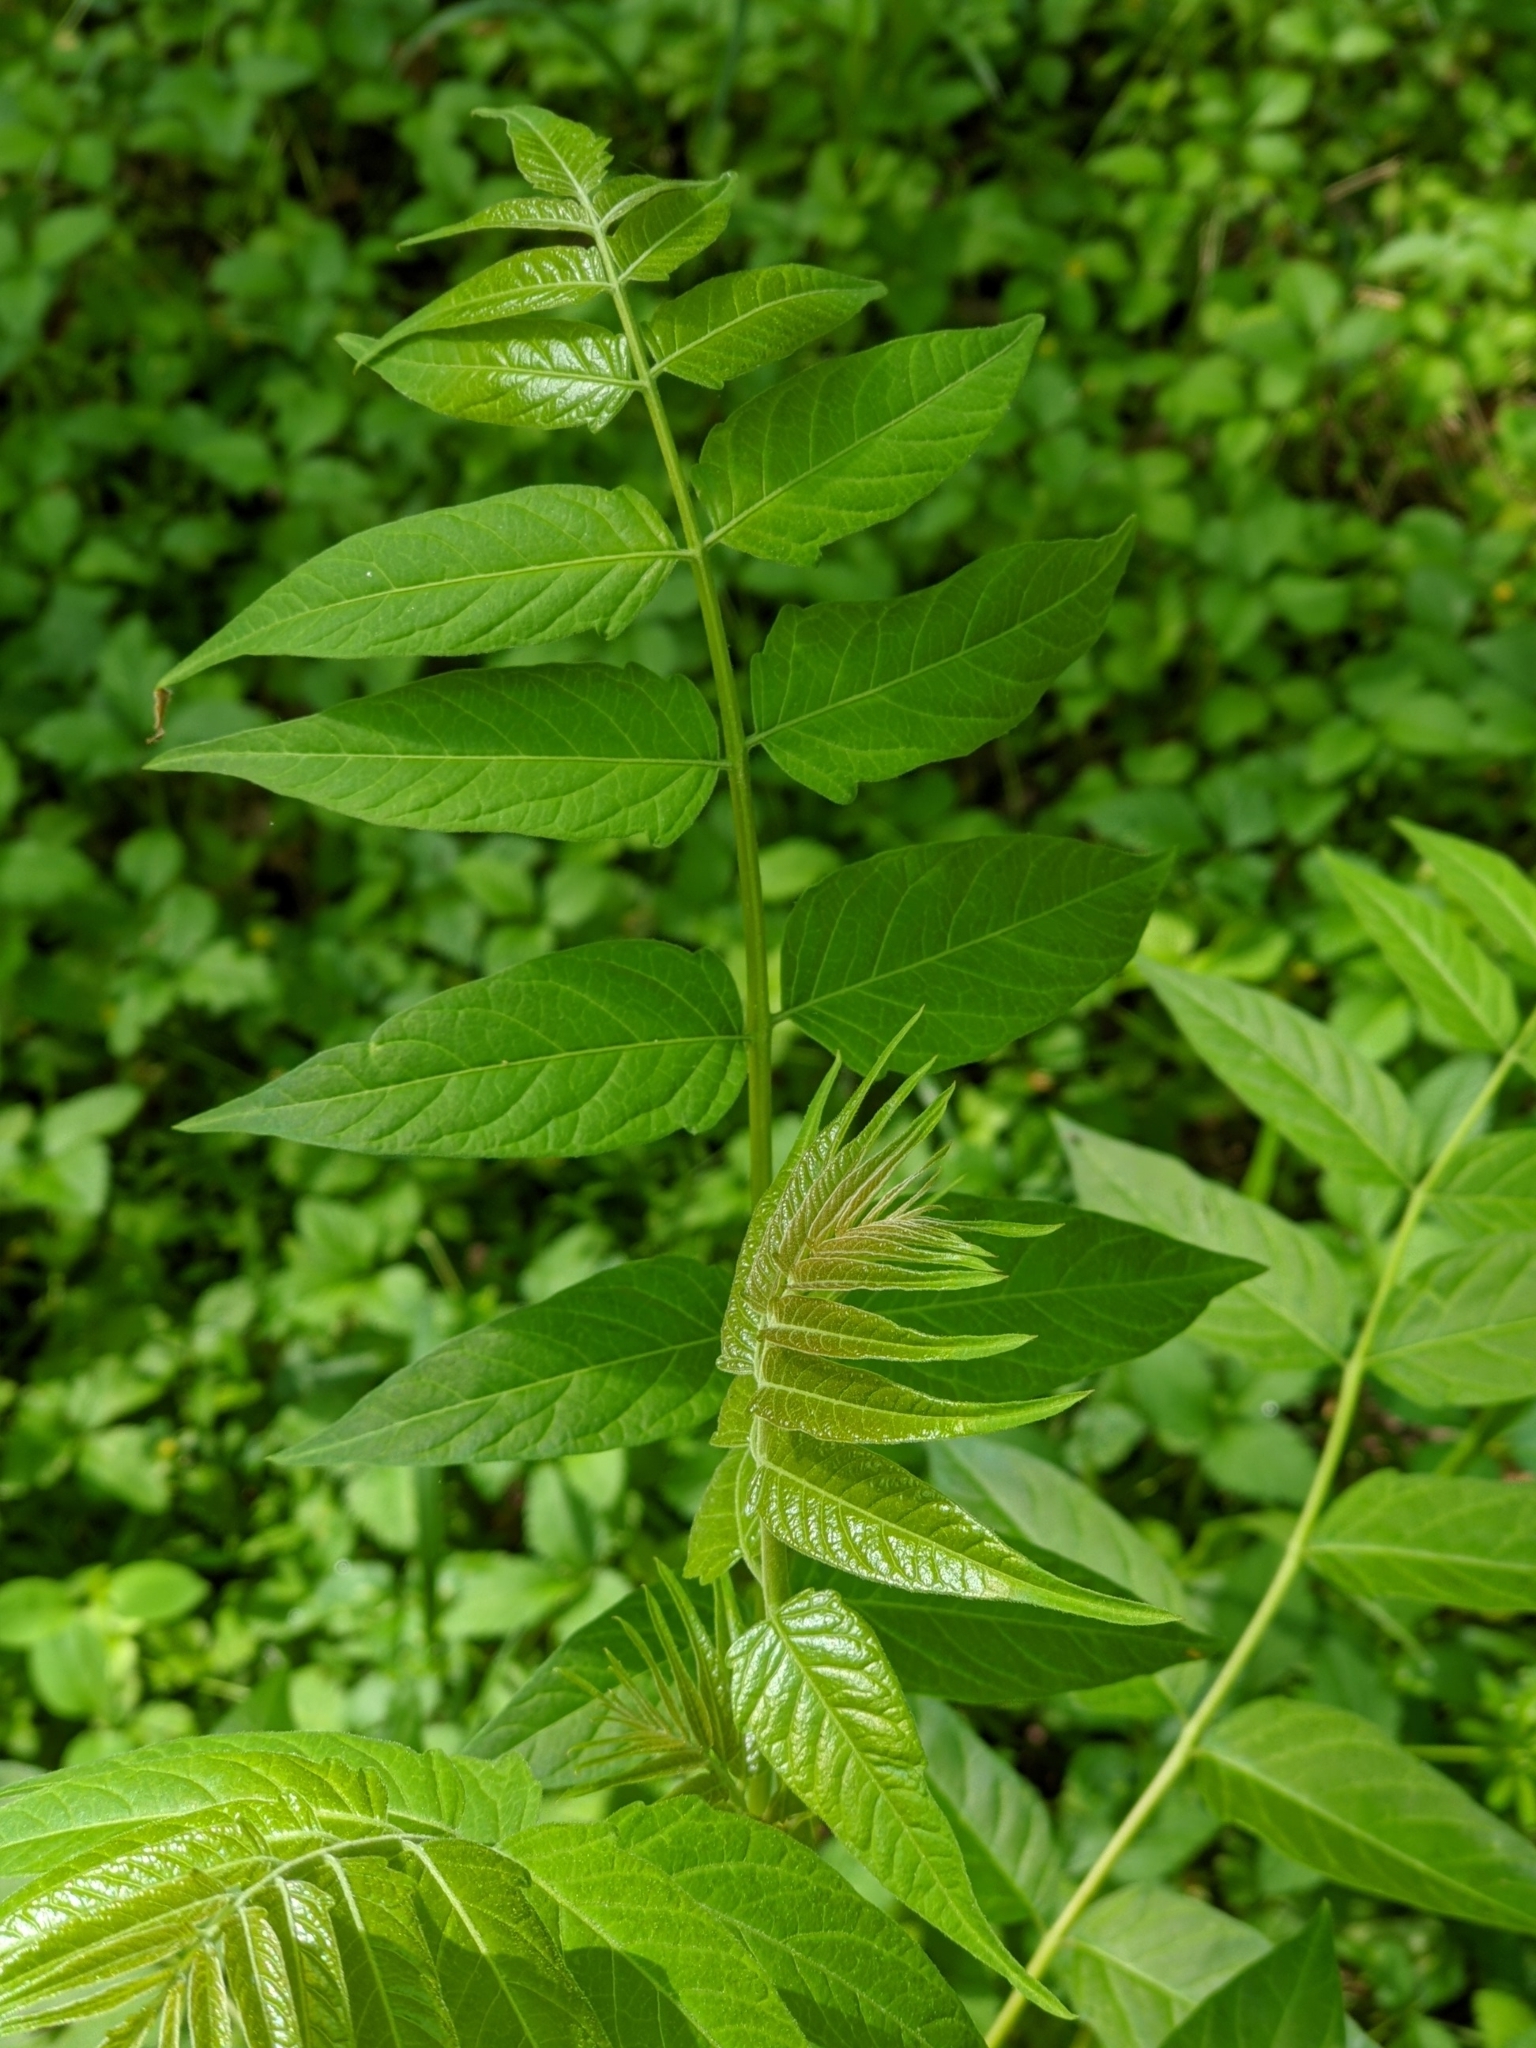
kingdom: Plantae
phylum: Tracheophyta
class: Magnoliopsida
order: Sapindales
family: Simaroubaceae
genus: Ailanthus
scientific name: Ailanthus altissima
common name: Tree-of-heaven
